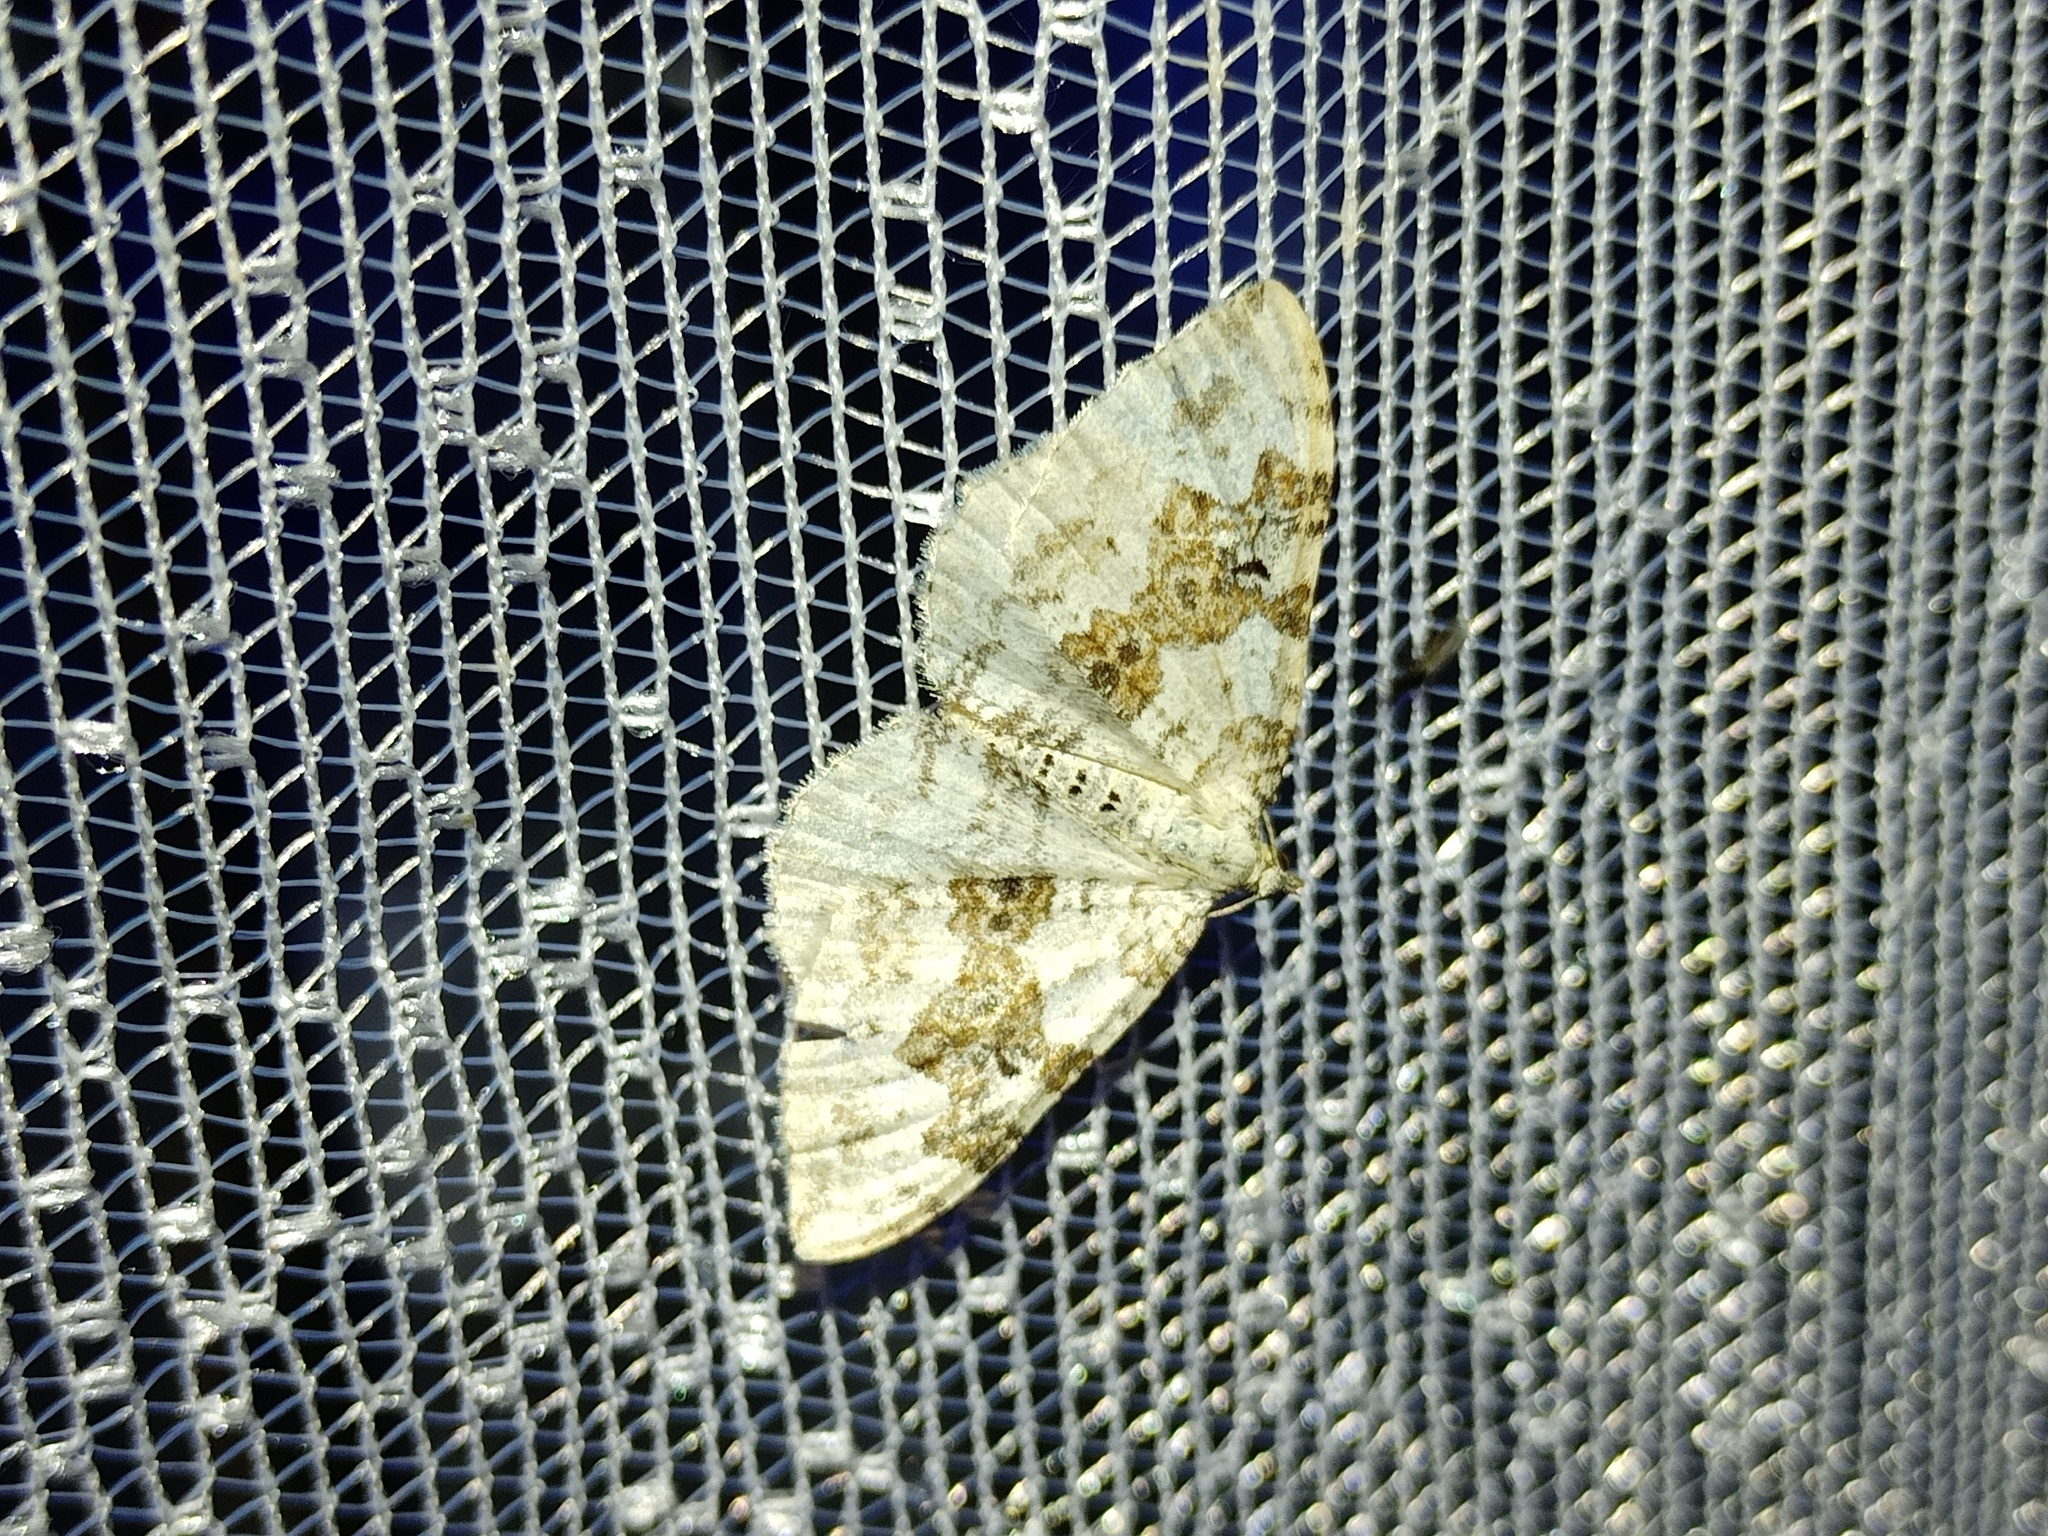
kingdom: Animalia
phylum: Arthropoda
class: Insecta
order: Lepidoptera
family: Geometridae
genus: Xanthorhoe
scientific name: Xanthorhoe montanata
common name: Silver-ground carpet
